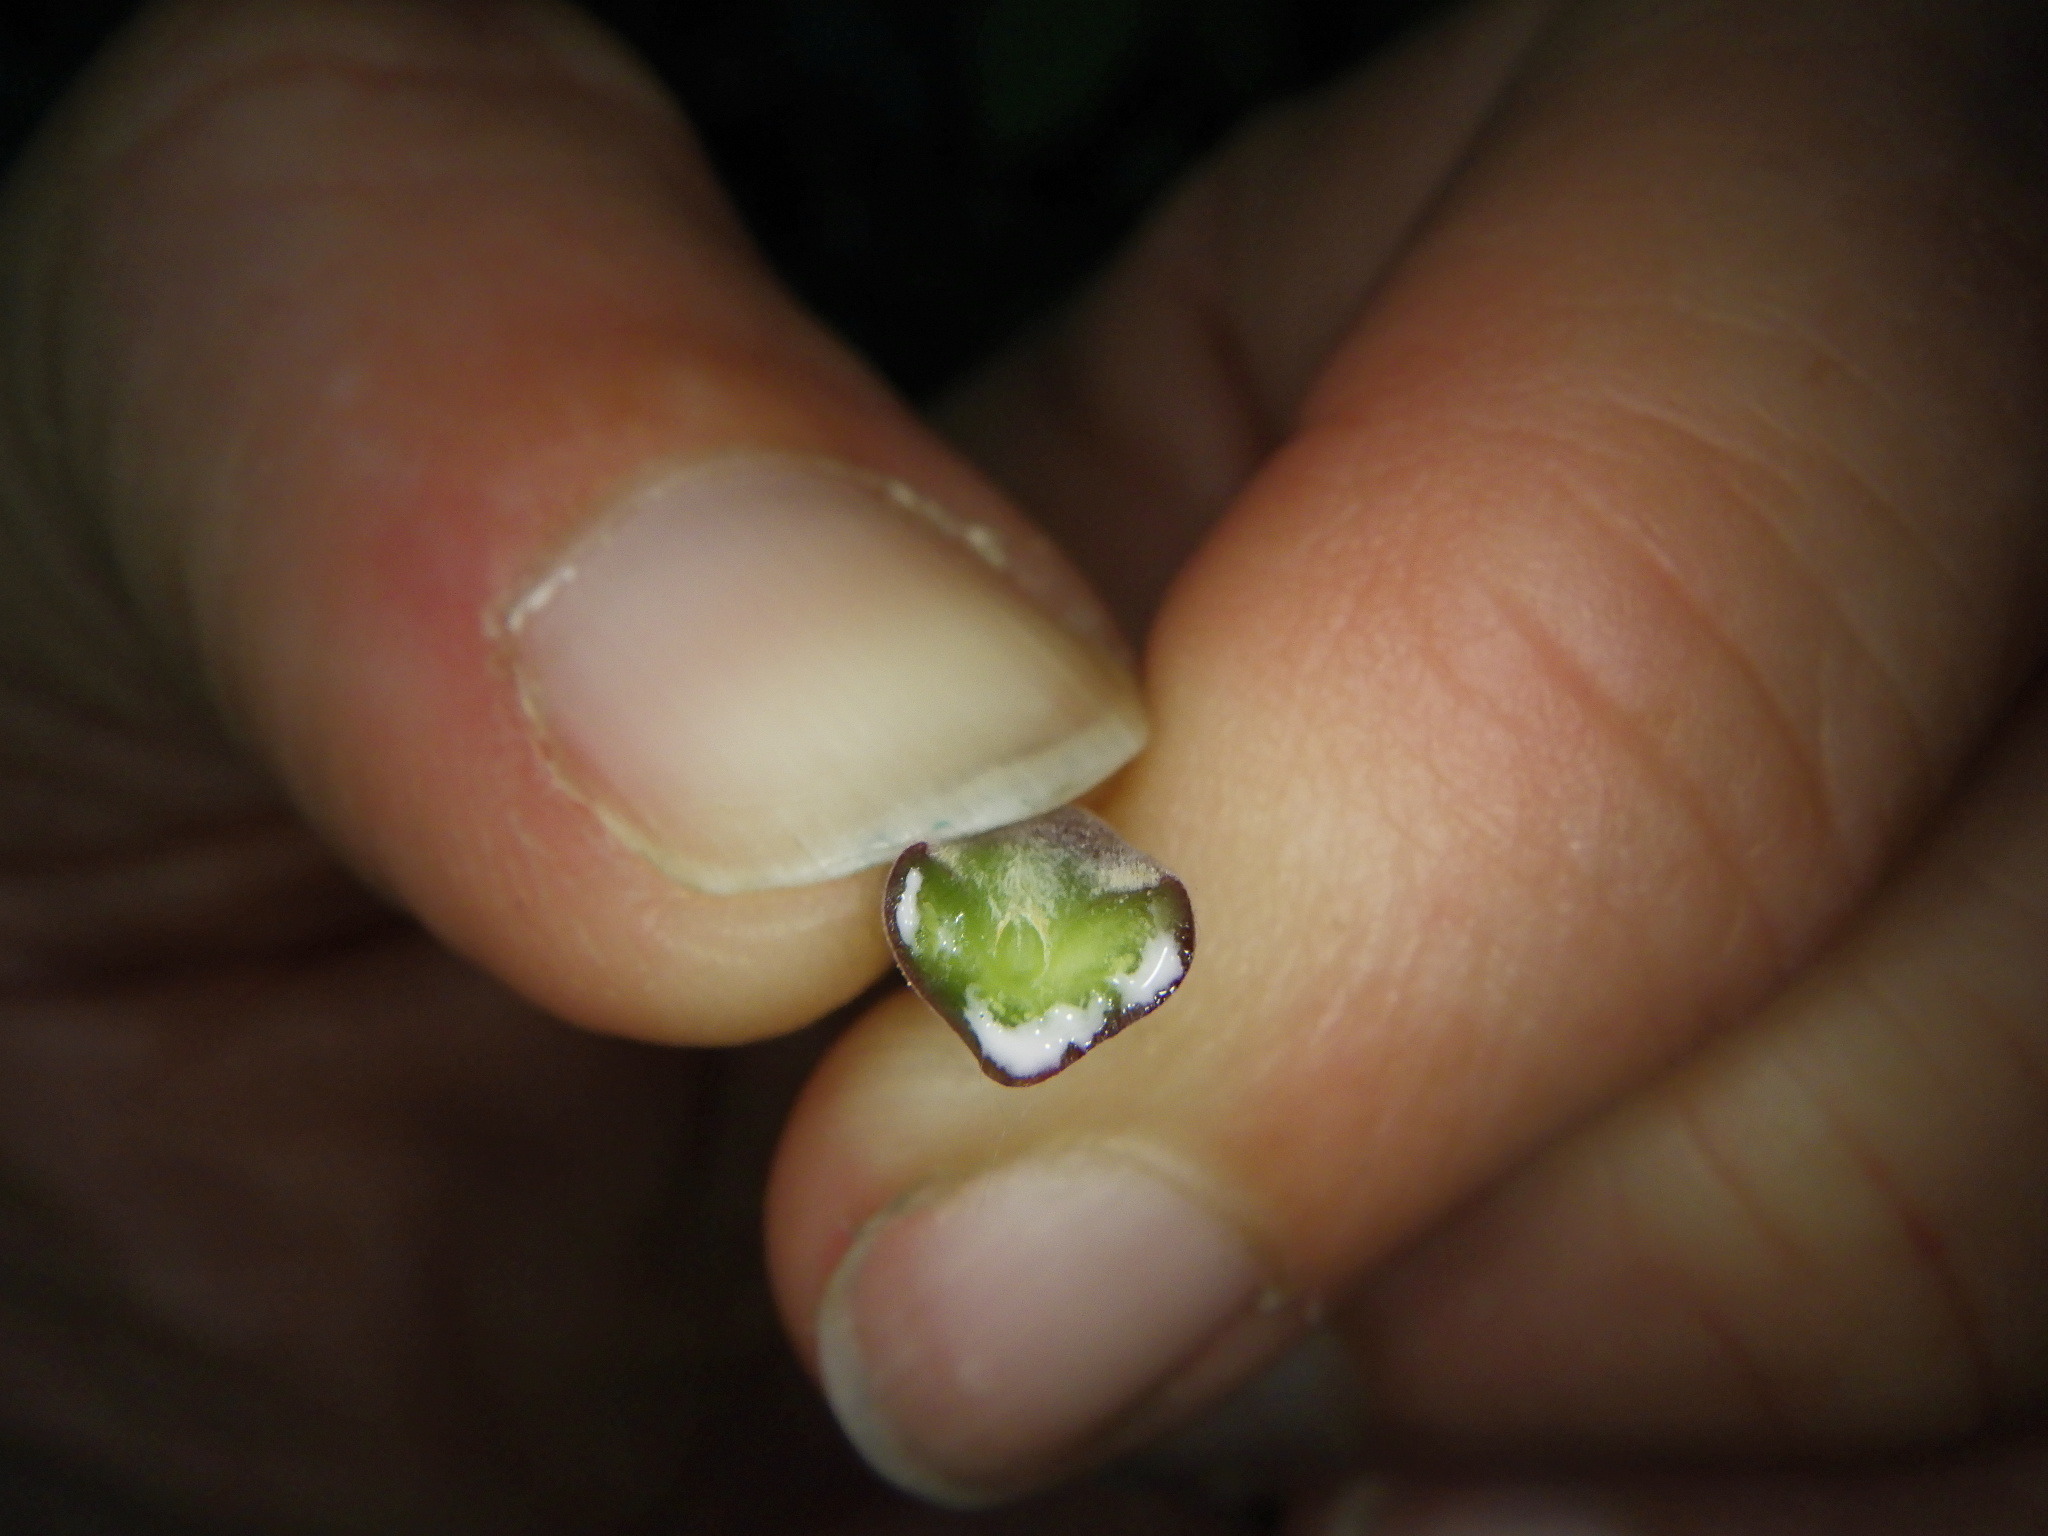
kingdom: Plantae
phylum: Tracheophyta
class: Magnoliopsida
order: Sapindales
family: Sapindaceae
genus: Acer
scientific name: Acer platanoides
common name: Norway maple
